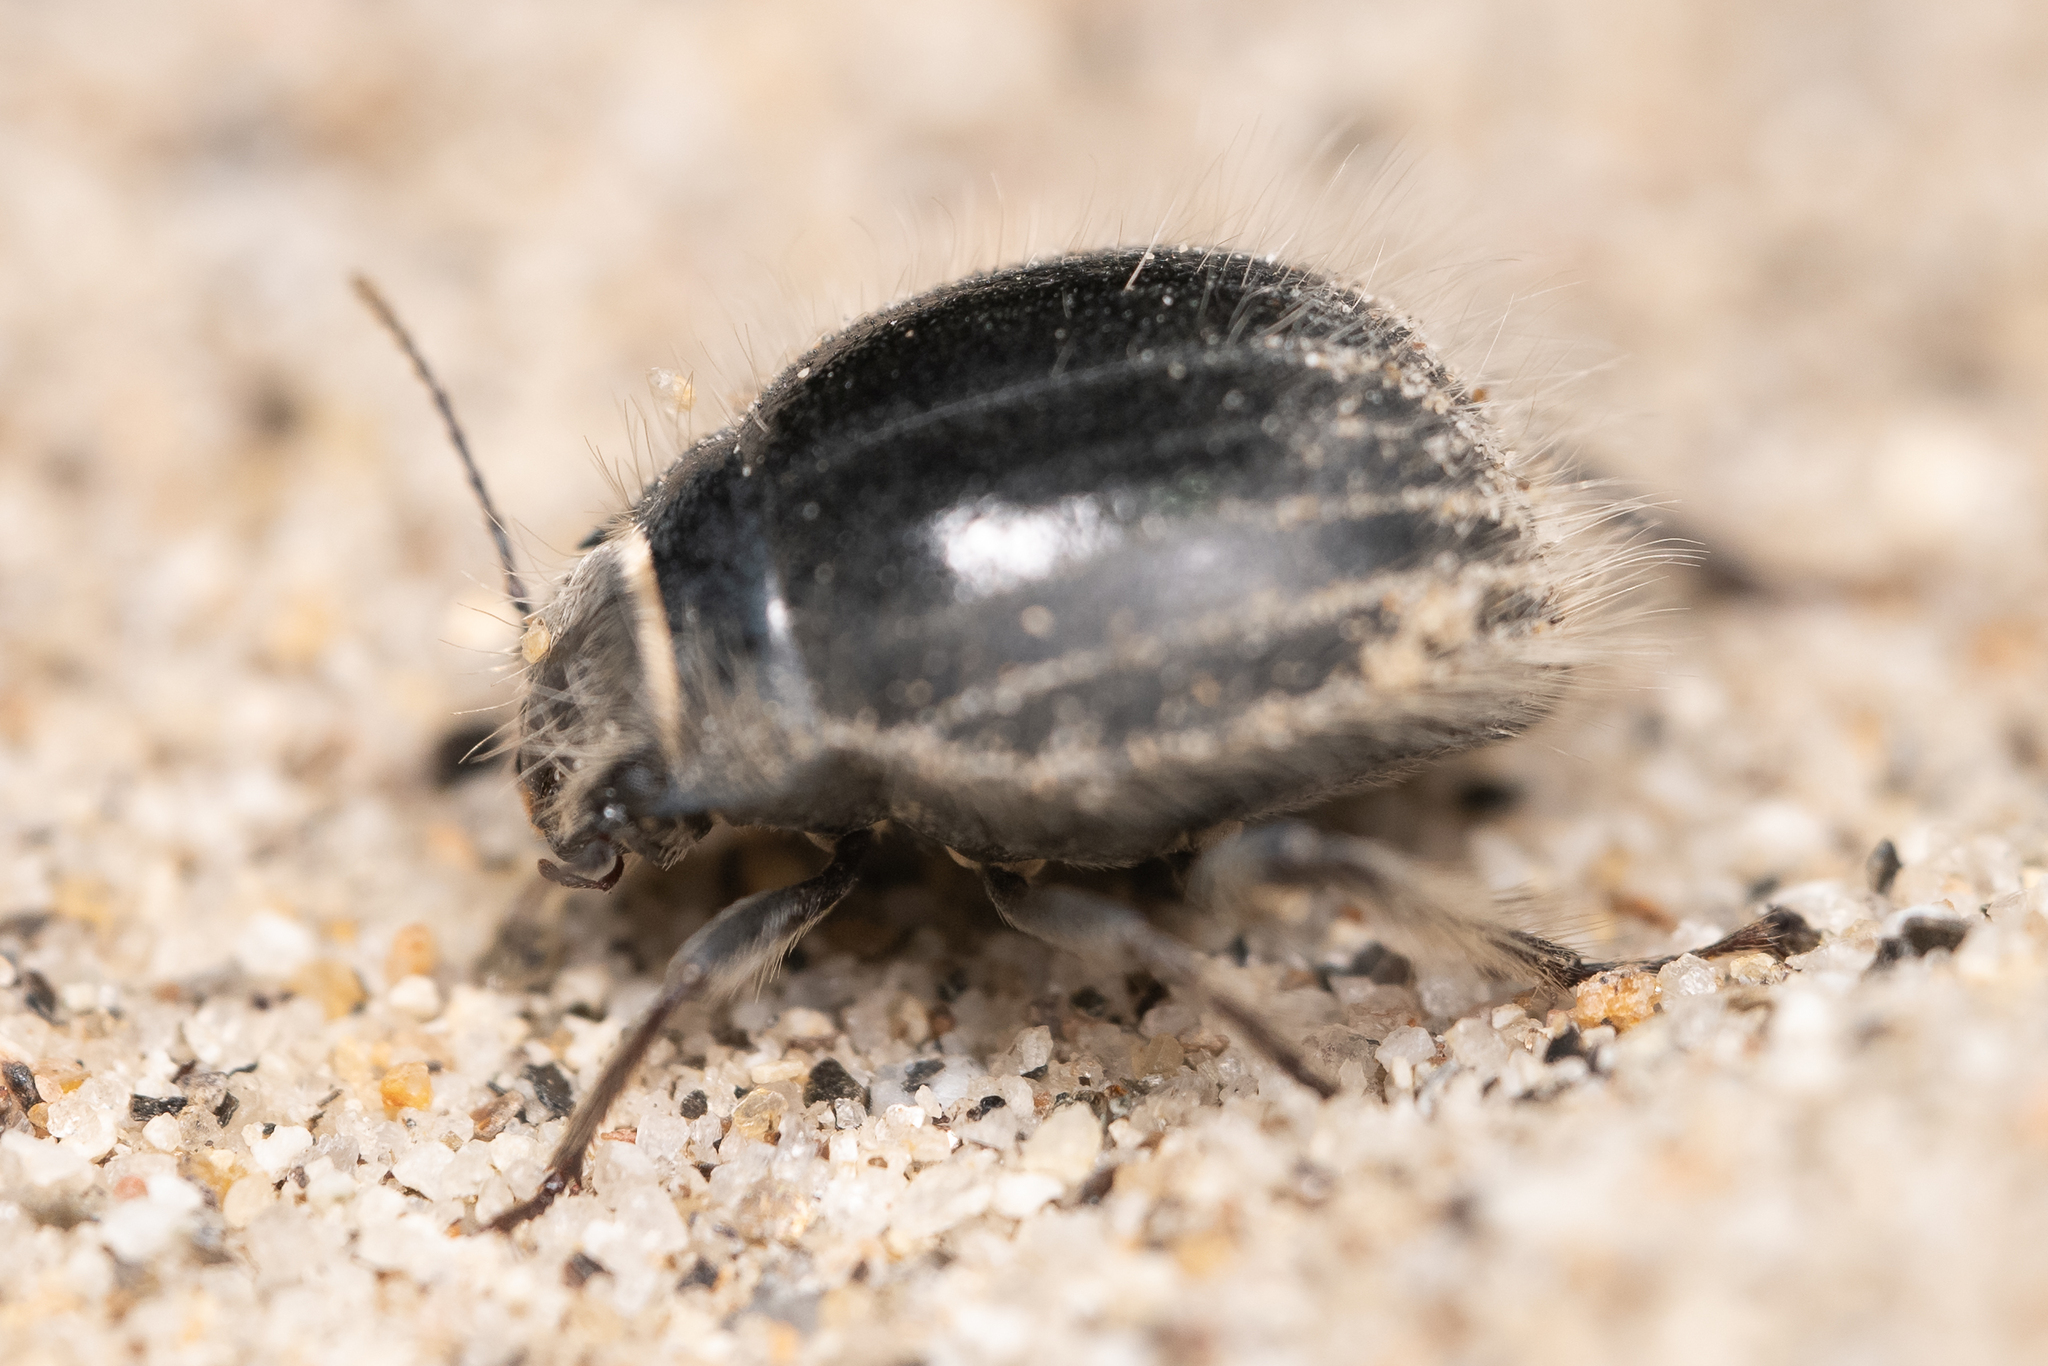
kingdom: Animalia
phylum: Arthropoda
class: Insecta
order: Coleoptera
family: Tenebrionidae
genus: Edrotes
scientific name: Edrotes ventricosus
